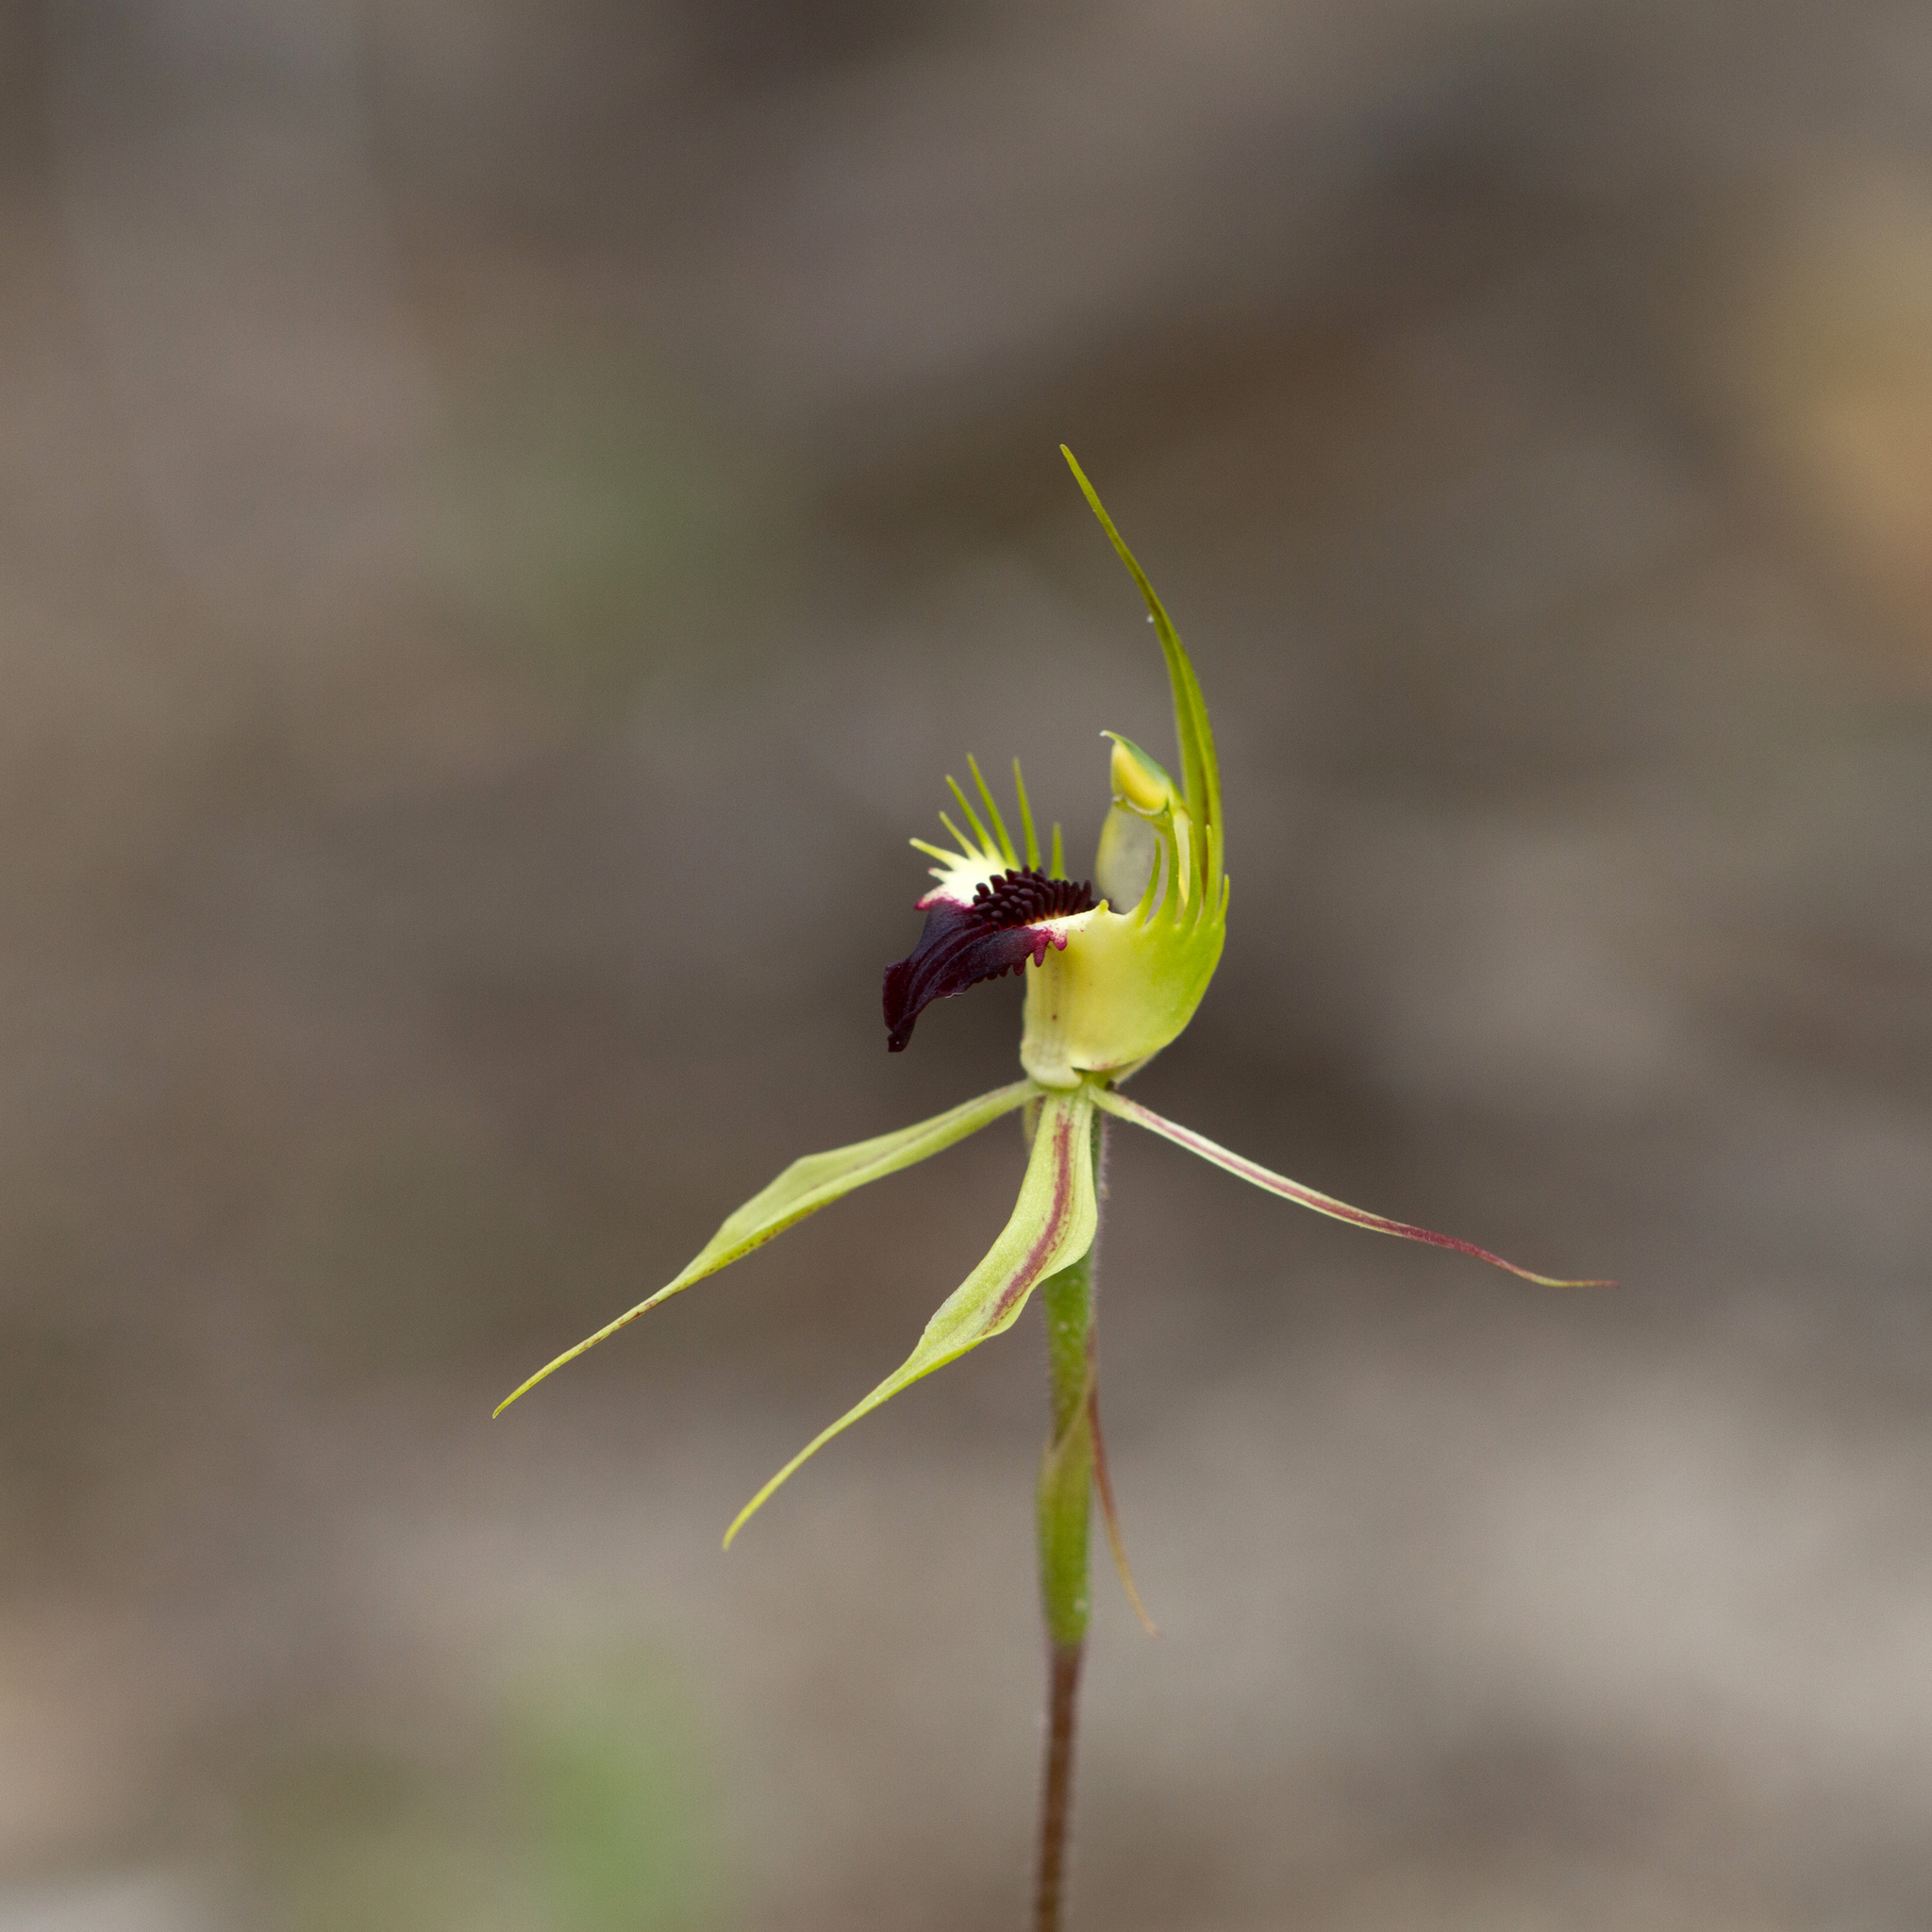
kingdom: Plantae
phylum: Tracheophyta
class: Liliopsida
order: Asparagales
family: Orchidaceae
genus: Caladenia
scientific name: Caladenia stricta
